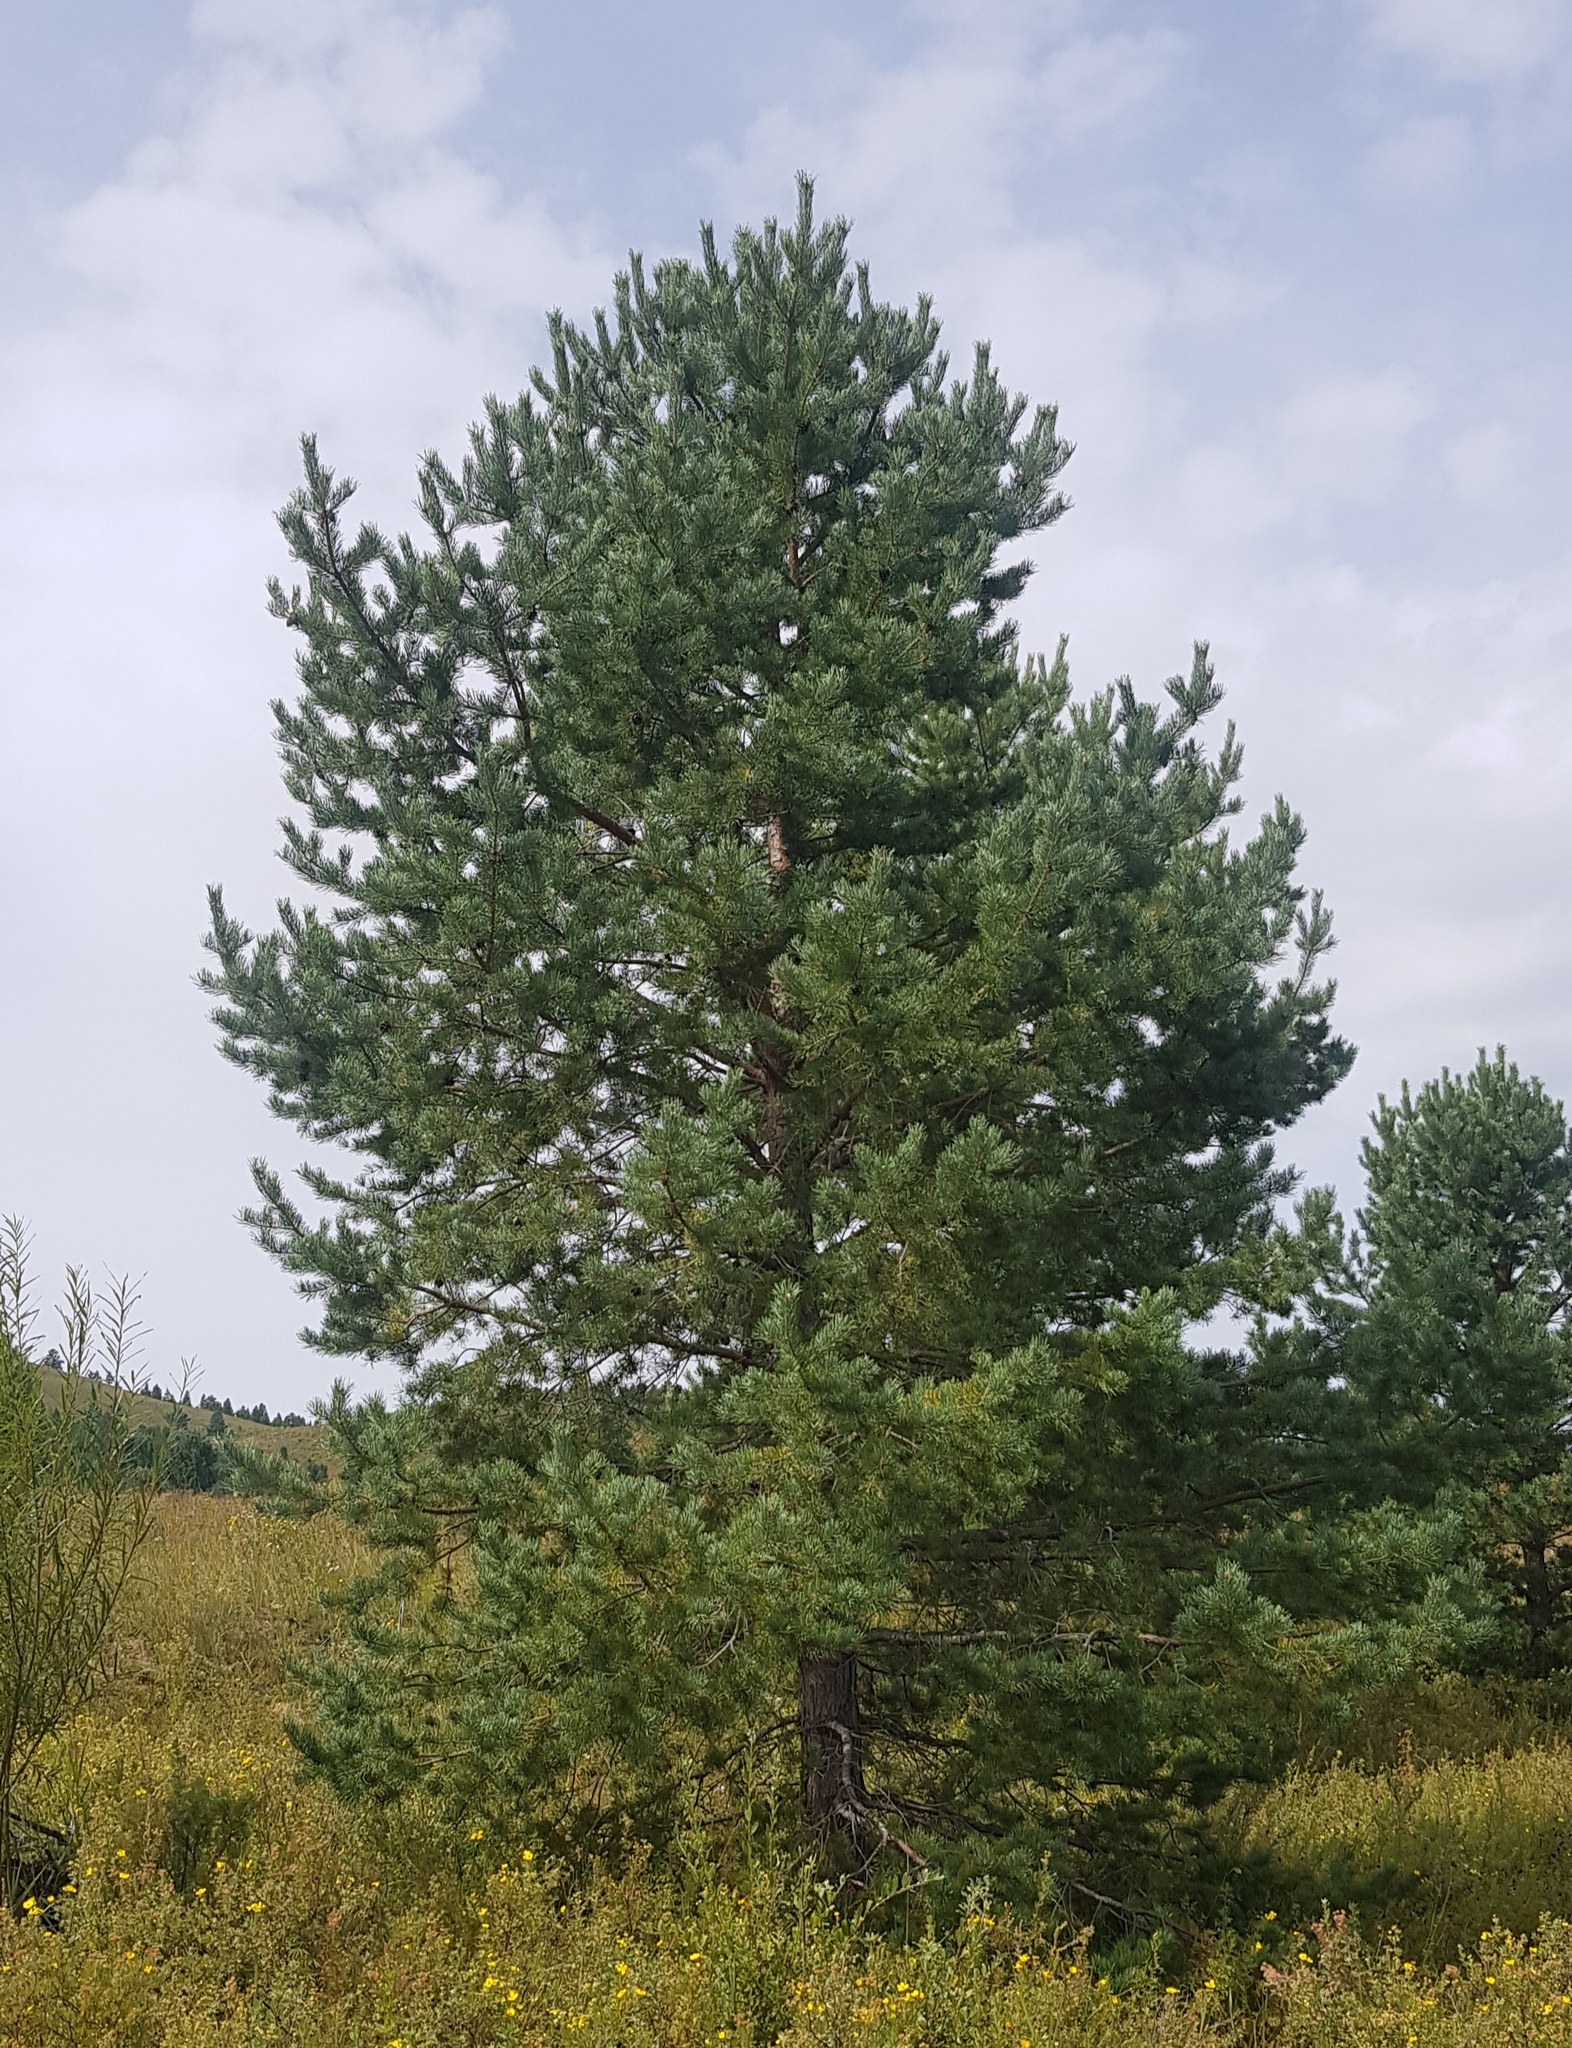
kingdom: Plantae
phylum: Tracheophyta
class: Pinopsida
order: Pinales
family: Pinaceae
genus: Pinus
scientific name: Pinus sylvestris
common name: Scots pine
